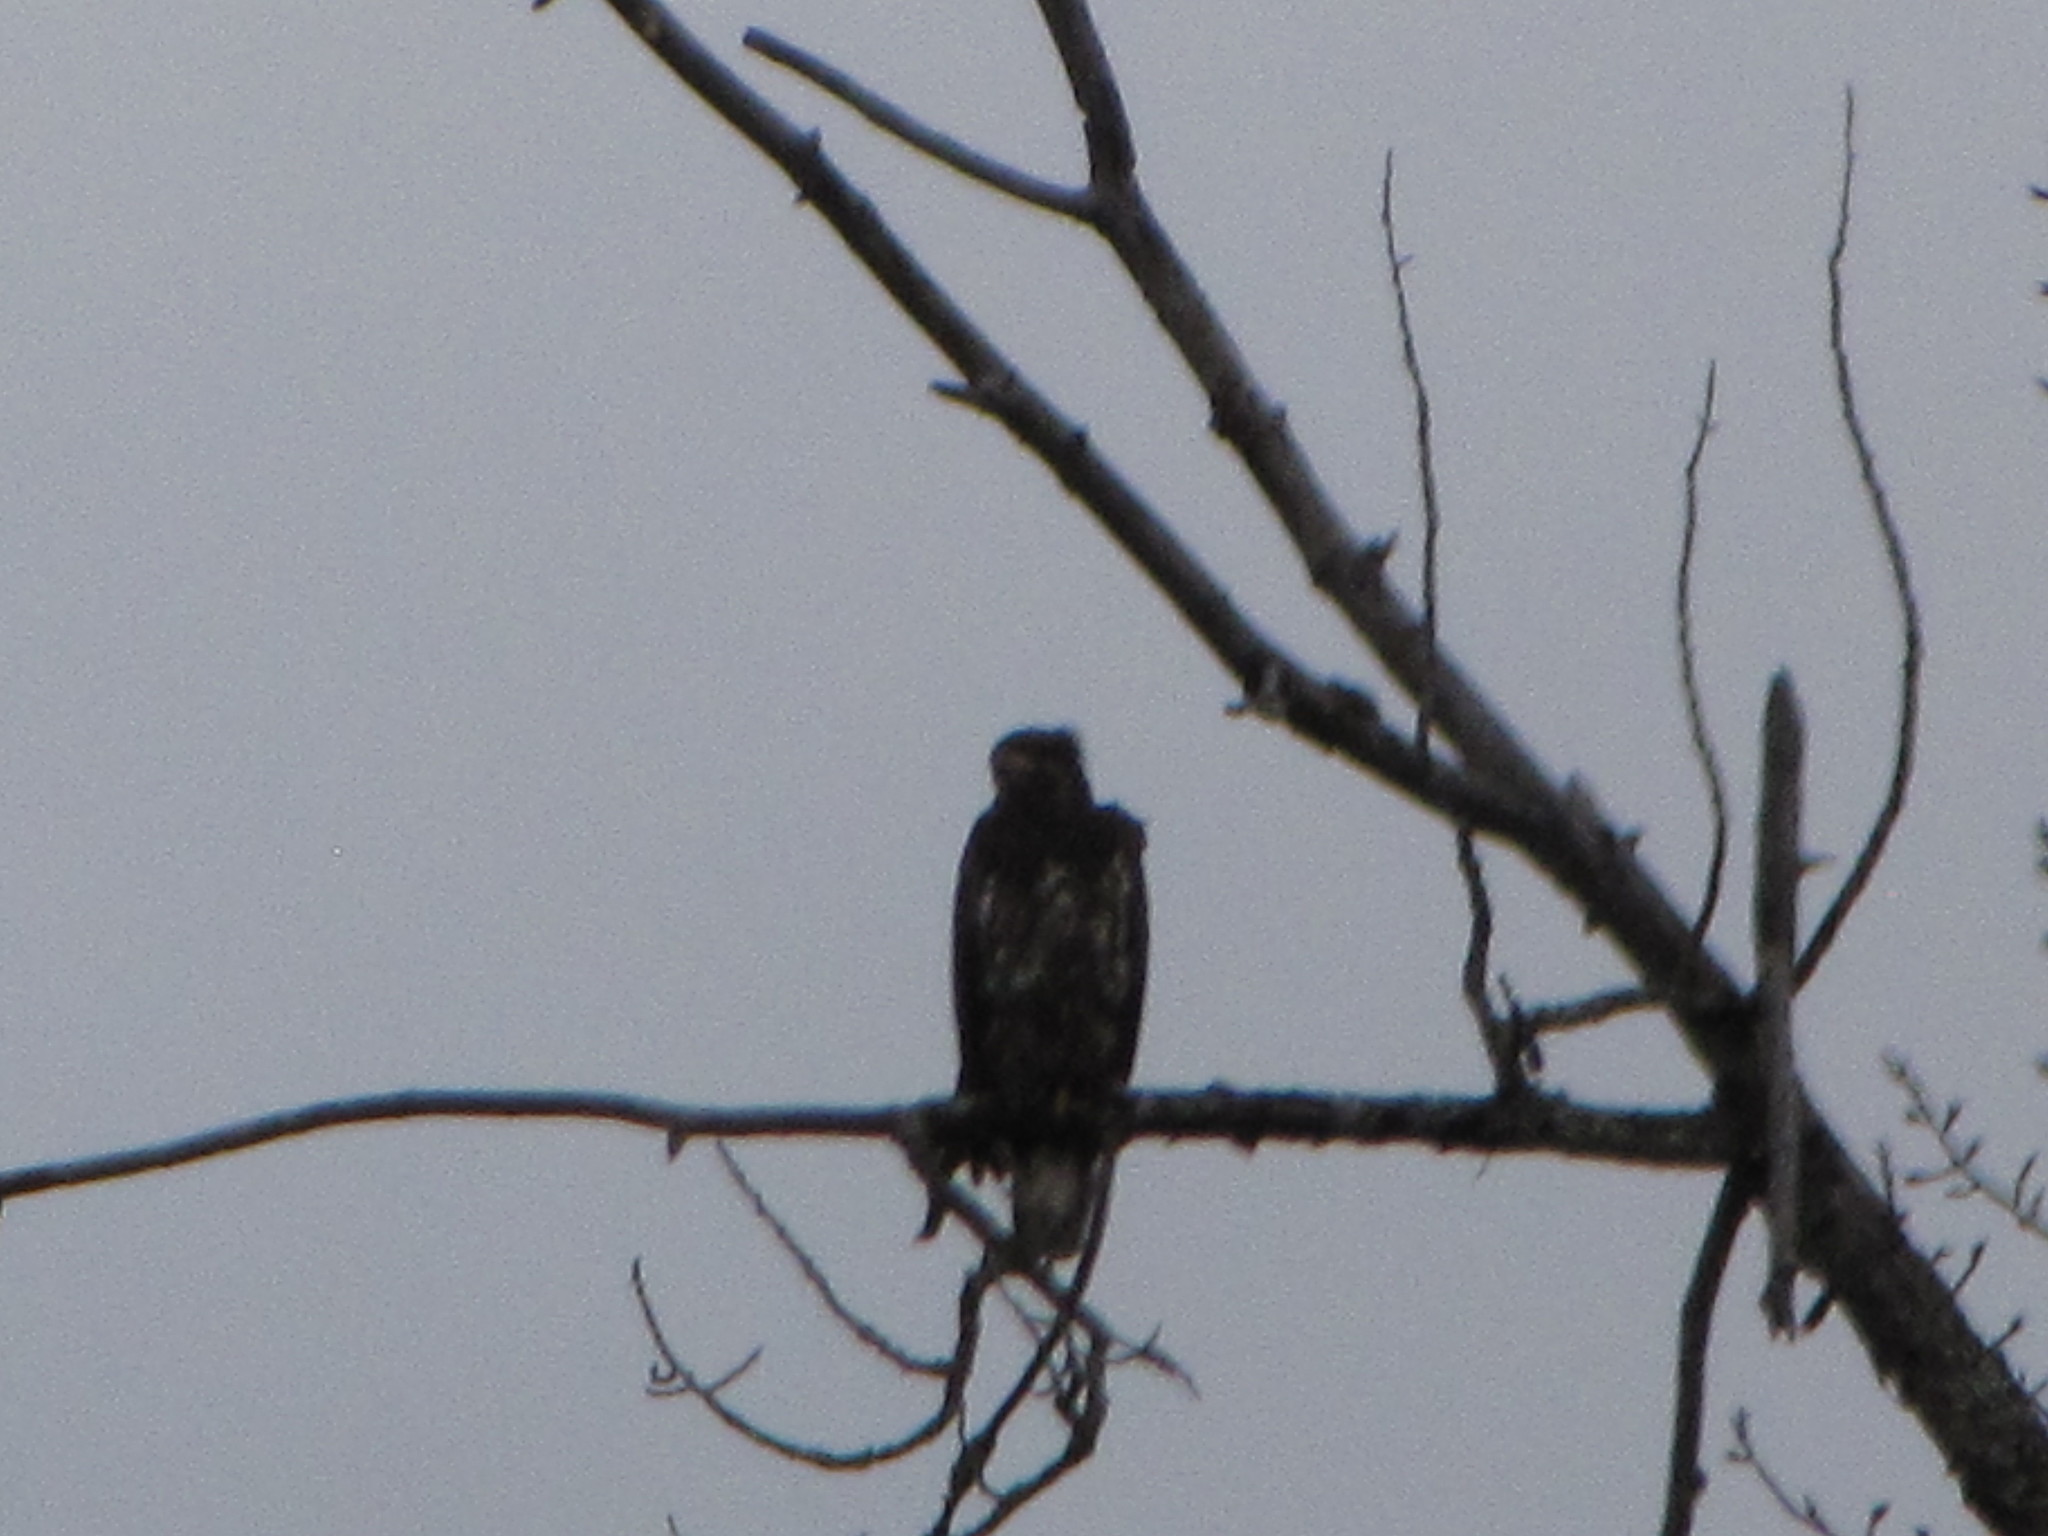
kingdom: Animalia
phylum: Chordata
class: Aves
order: Accipitriformes
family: Accipitridae
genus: Haliaeetus
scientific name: Haliaeetus leucocephalus
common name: Bald eagle
